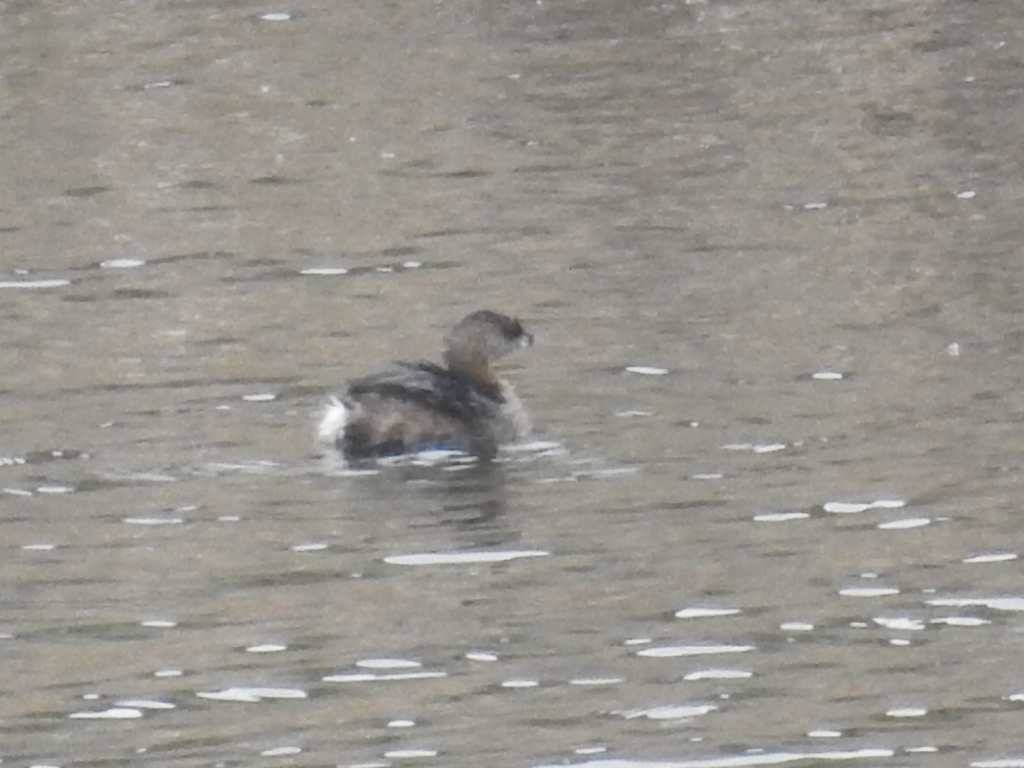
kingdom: Animalia
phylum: Chordata
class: Aves
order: Podicipediformes
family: Podicipedidae
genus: Podilymbus
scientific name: Podilymbus podiceps
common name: Pied-billed grebe
